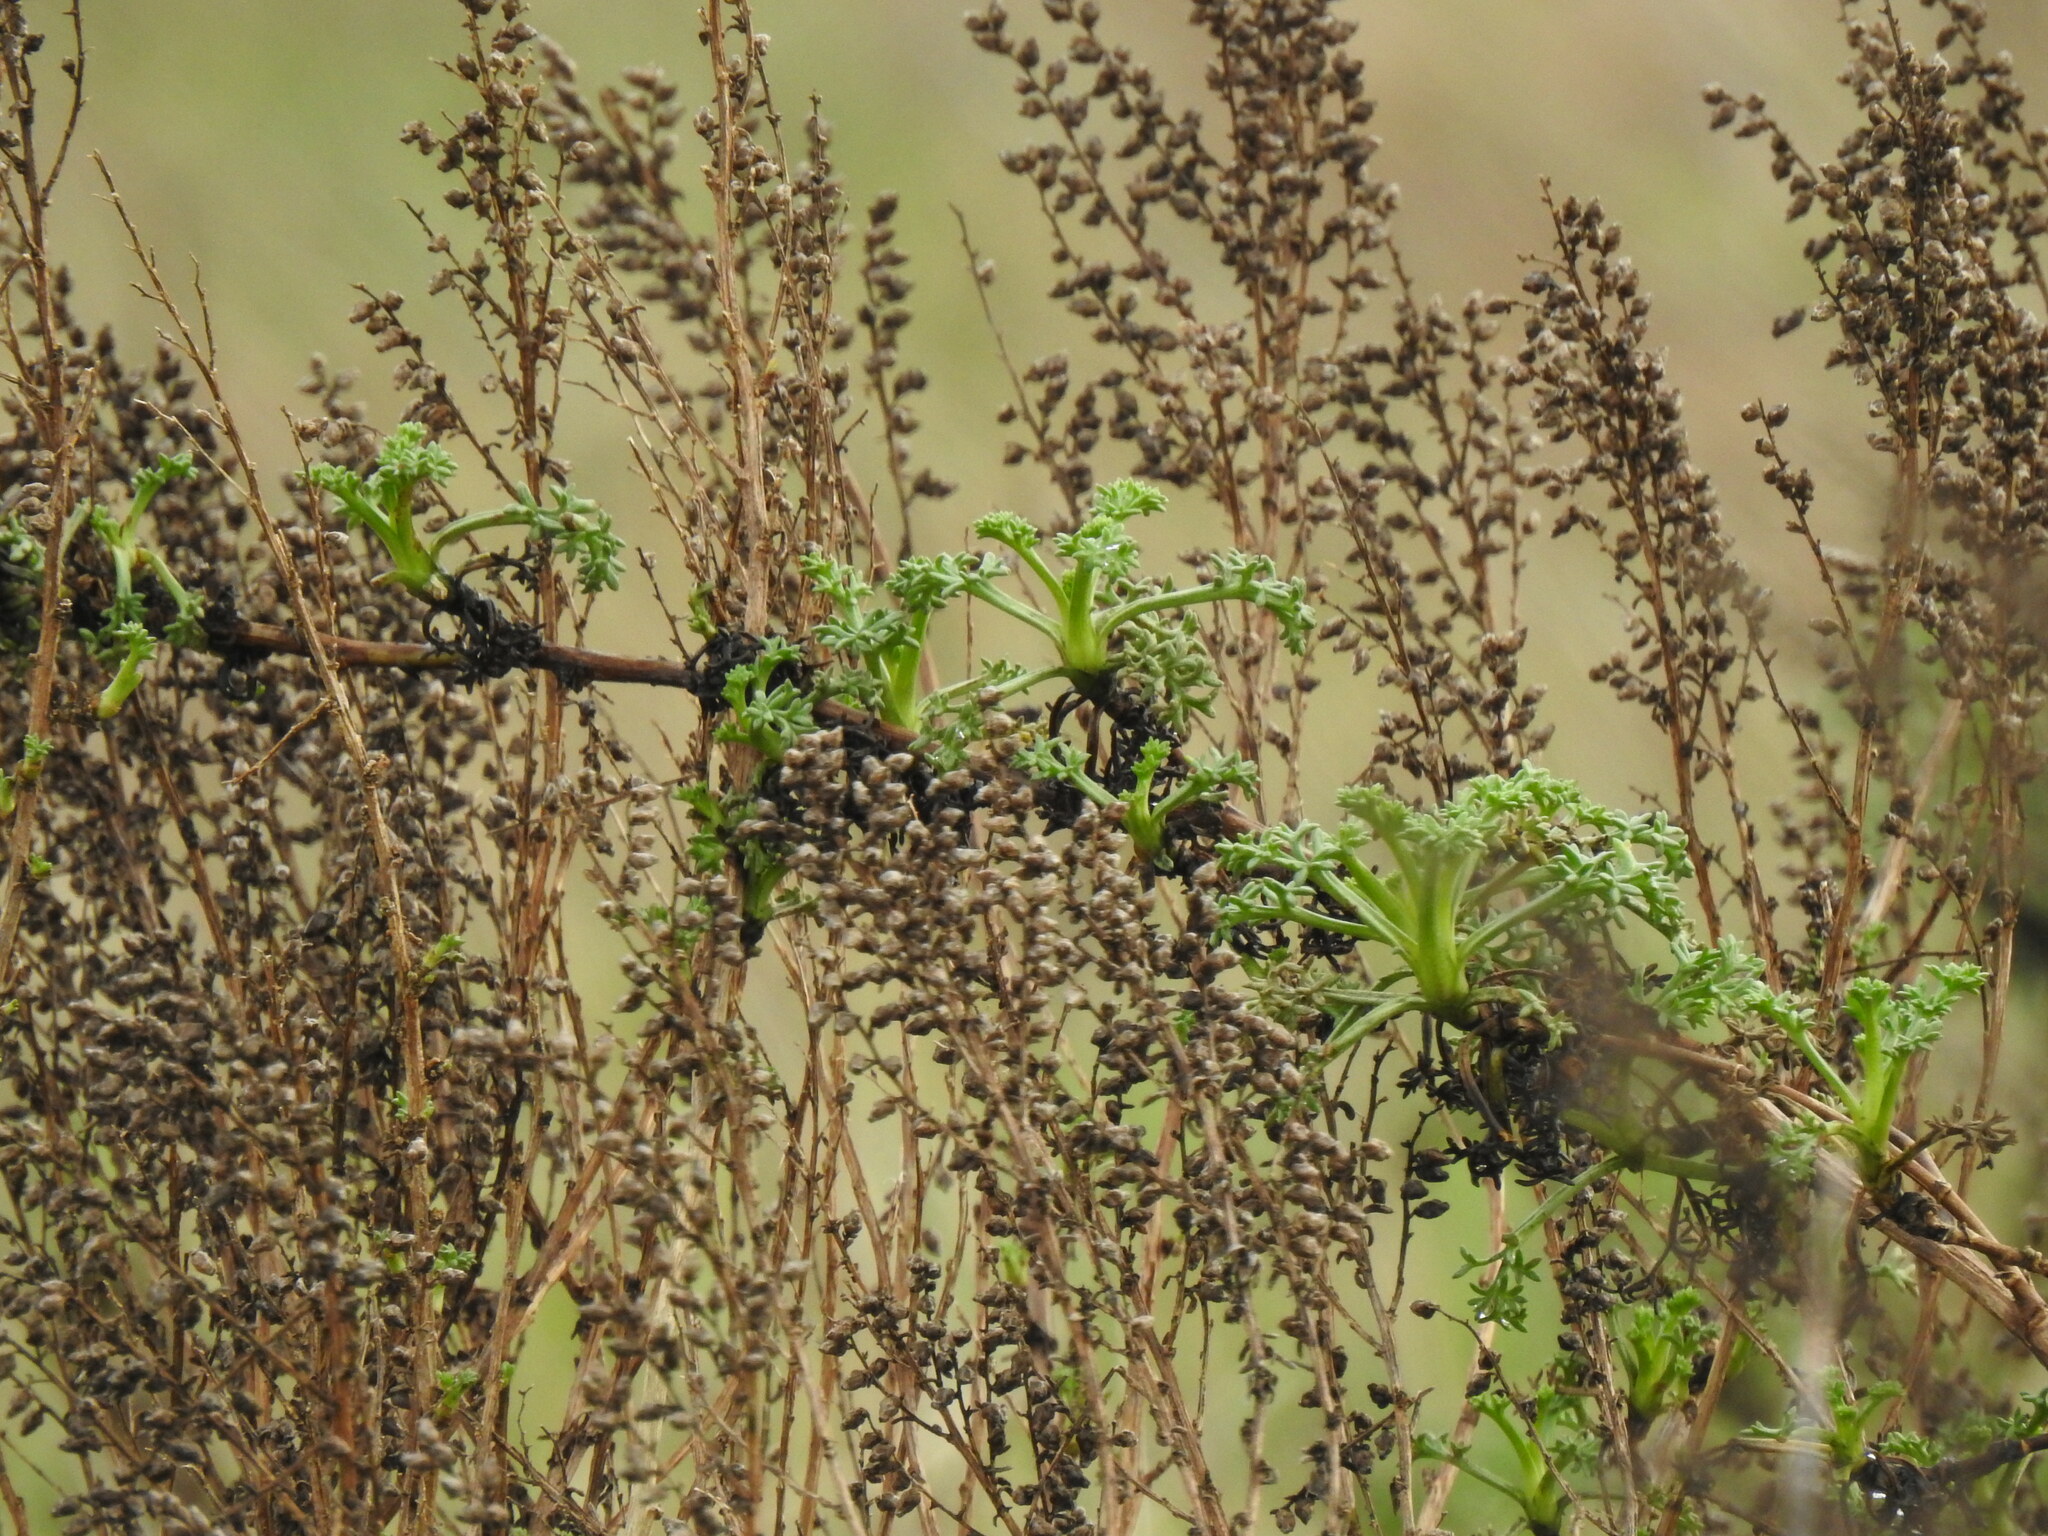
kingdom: Plantae
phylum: Tracheophyta
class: Magnoliopsida
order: Asterales
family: Asteraceae
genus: Artemisia
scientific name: Artemisia crithmifolia
